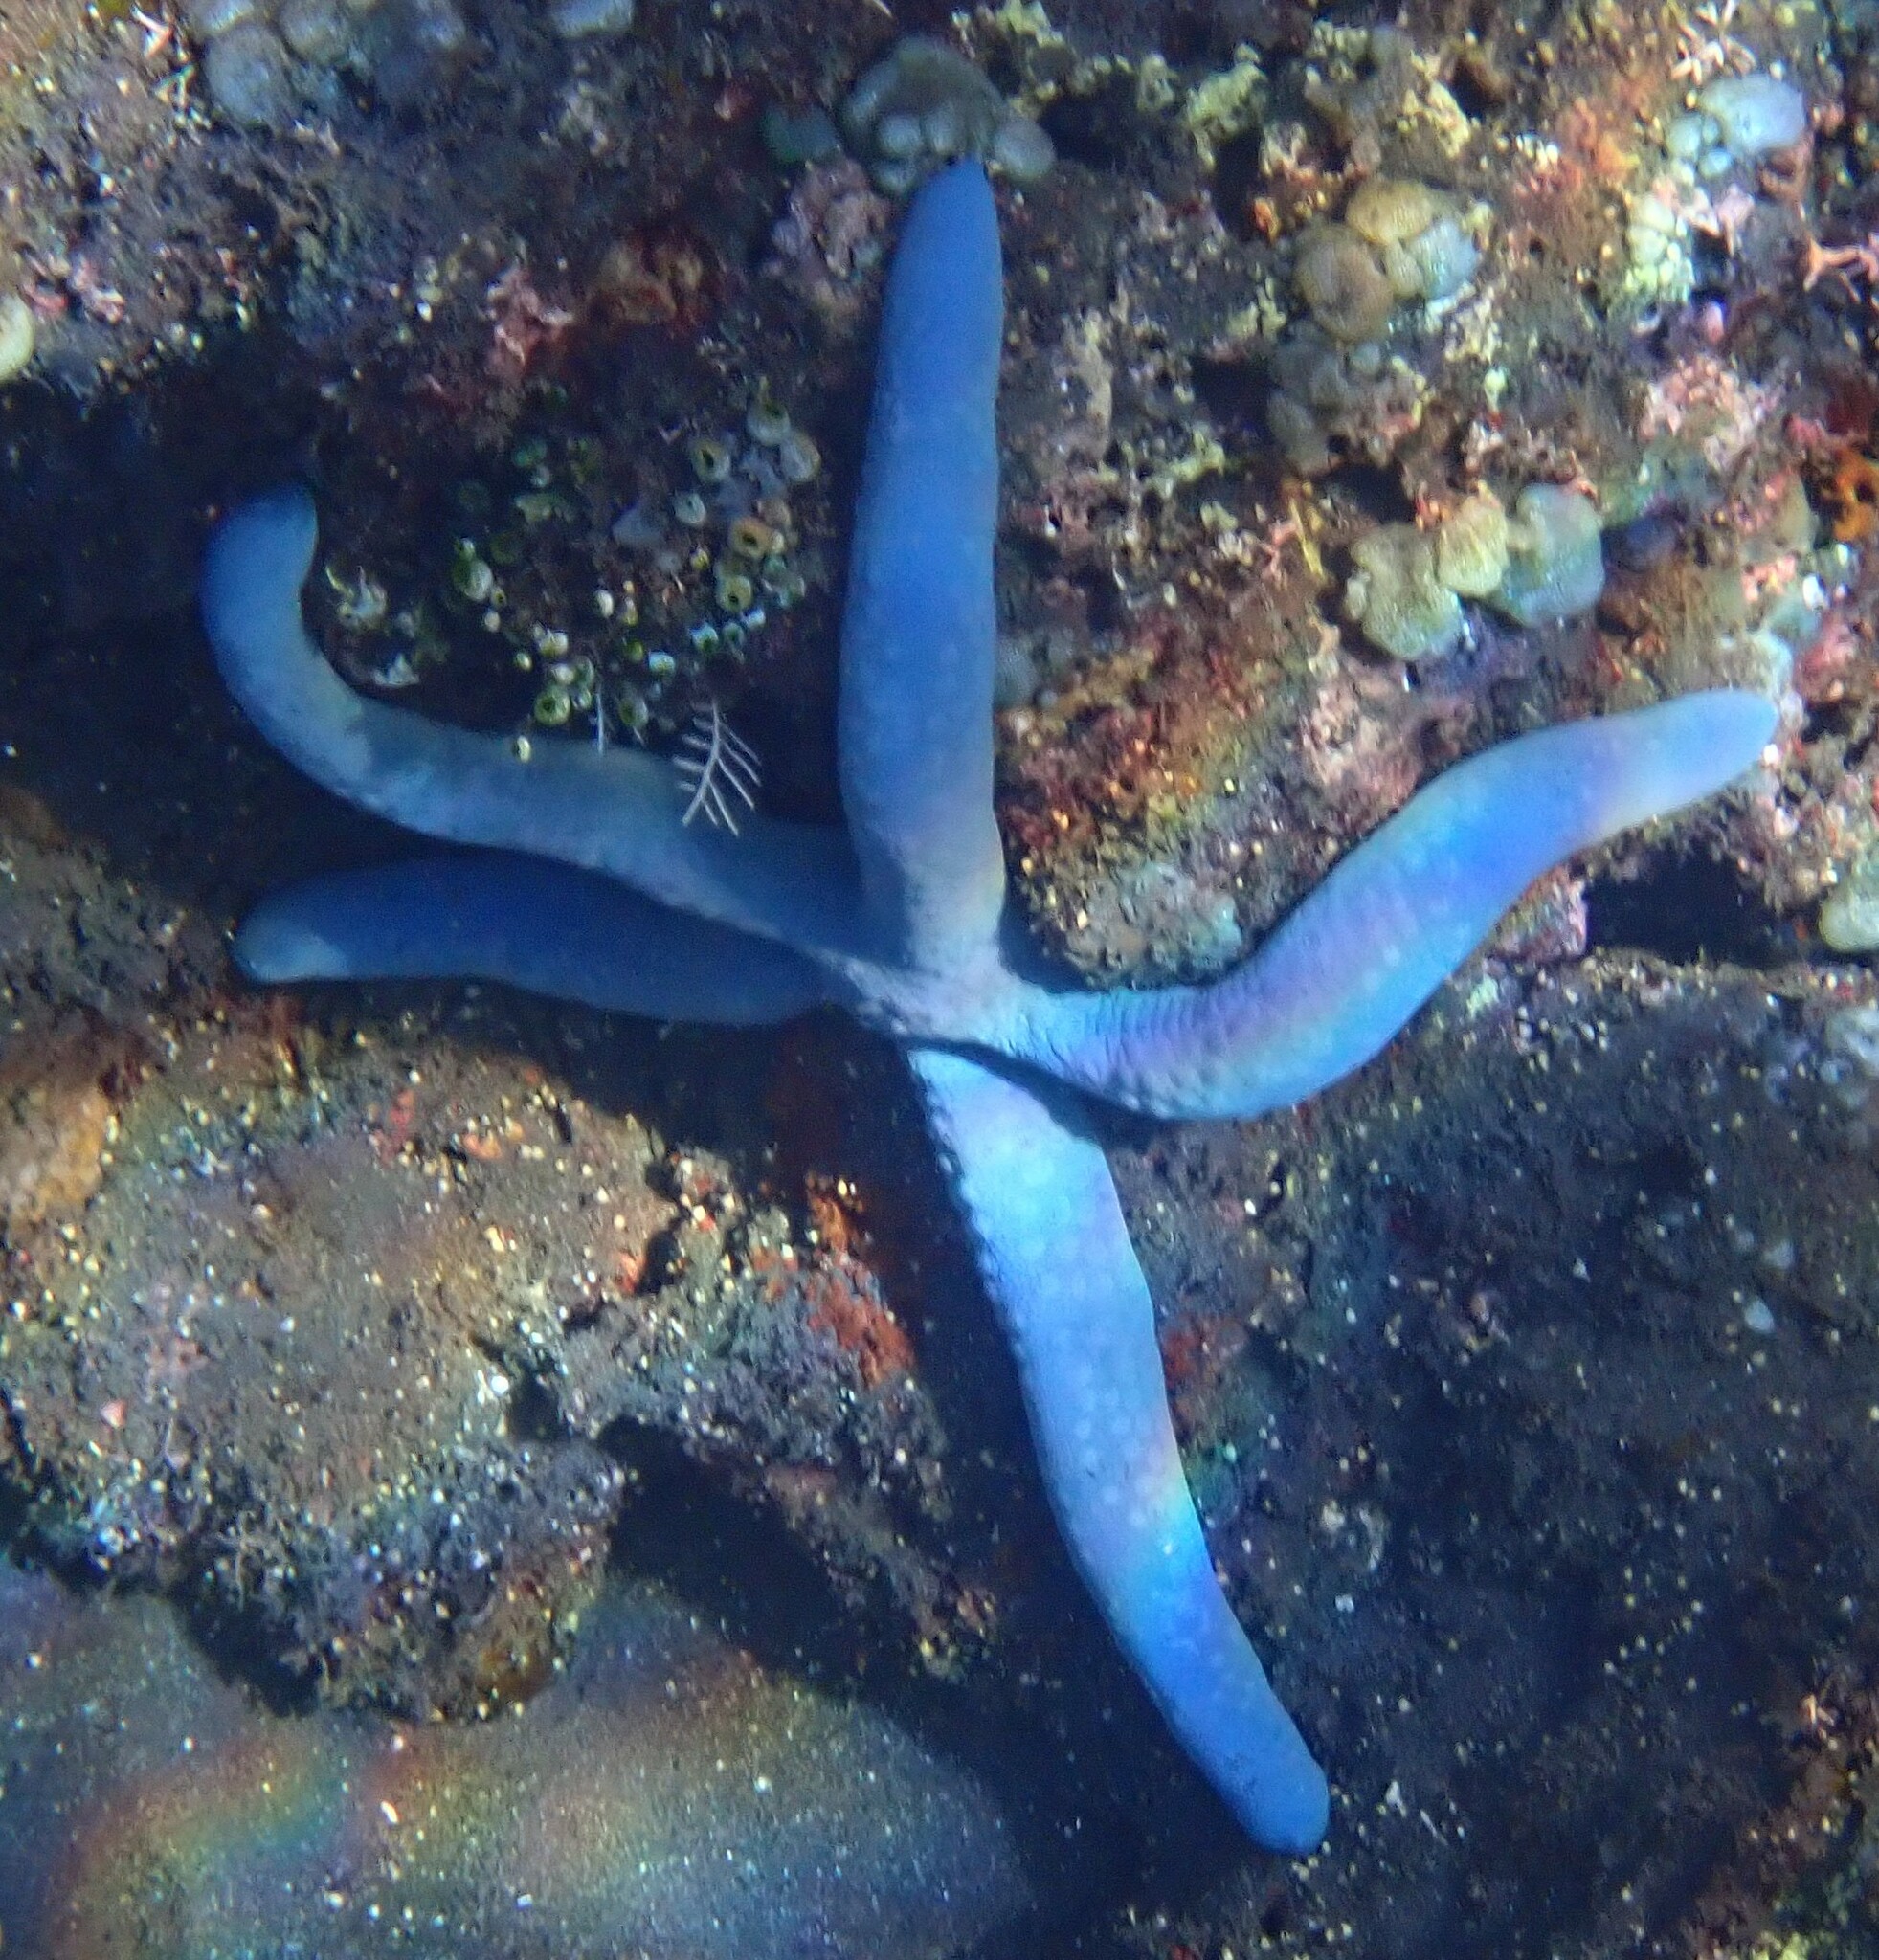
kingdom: Animalia
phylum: Echinodermata
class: Asteroidea
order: Valvatida
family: Ophidiasteridae
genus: Linckia
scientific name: Linckia laevigata
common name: Azure sea star
